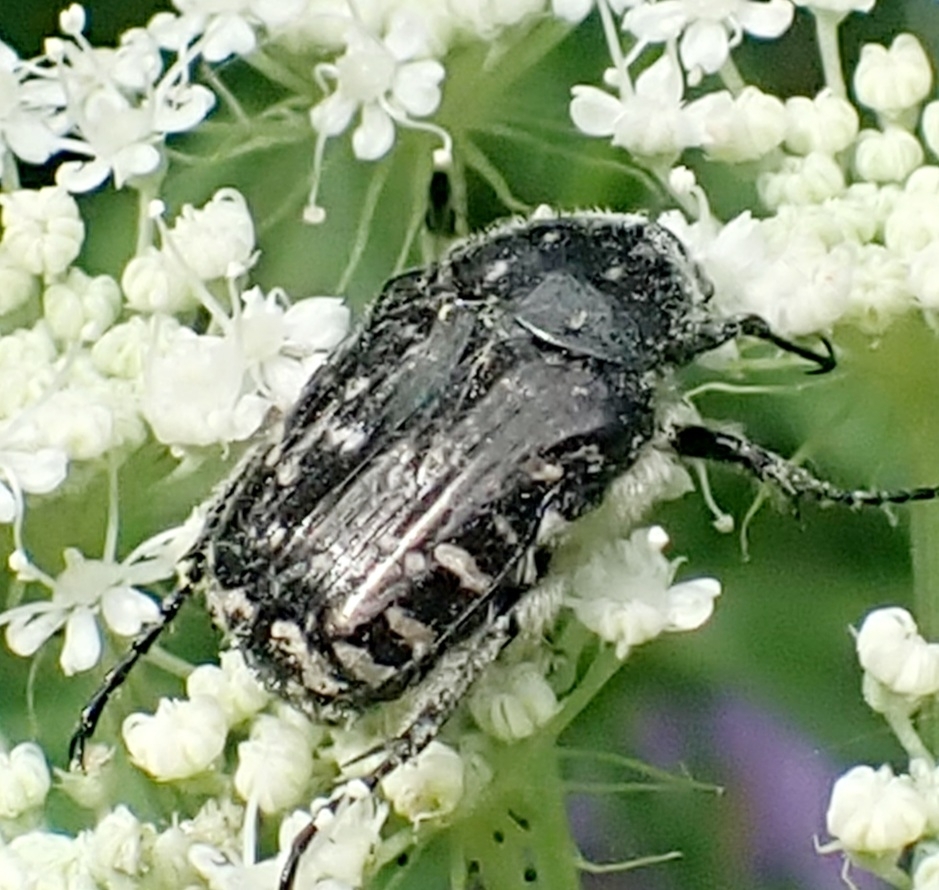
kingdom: Animalia
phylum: Arthropoda
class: Insecta
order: Coleoptera
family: Scarabaeidae
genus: Oxythyrea
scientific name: Oxythyrea funesta
